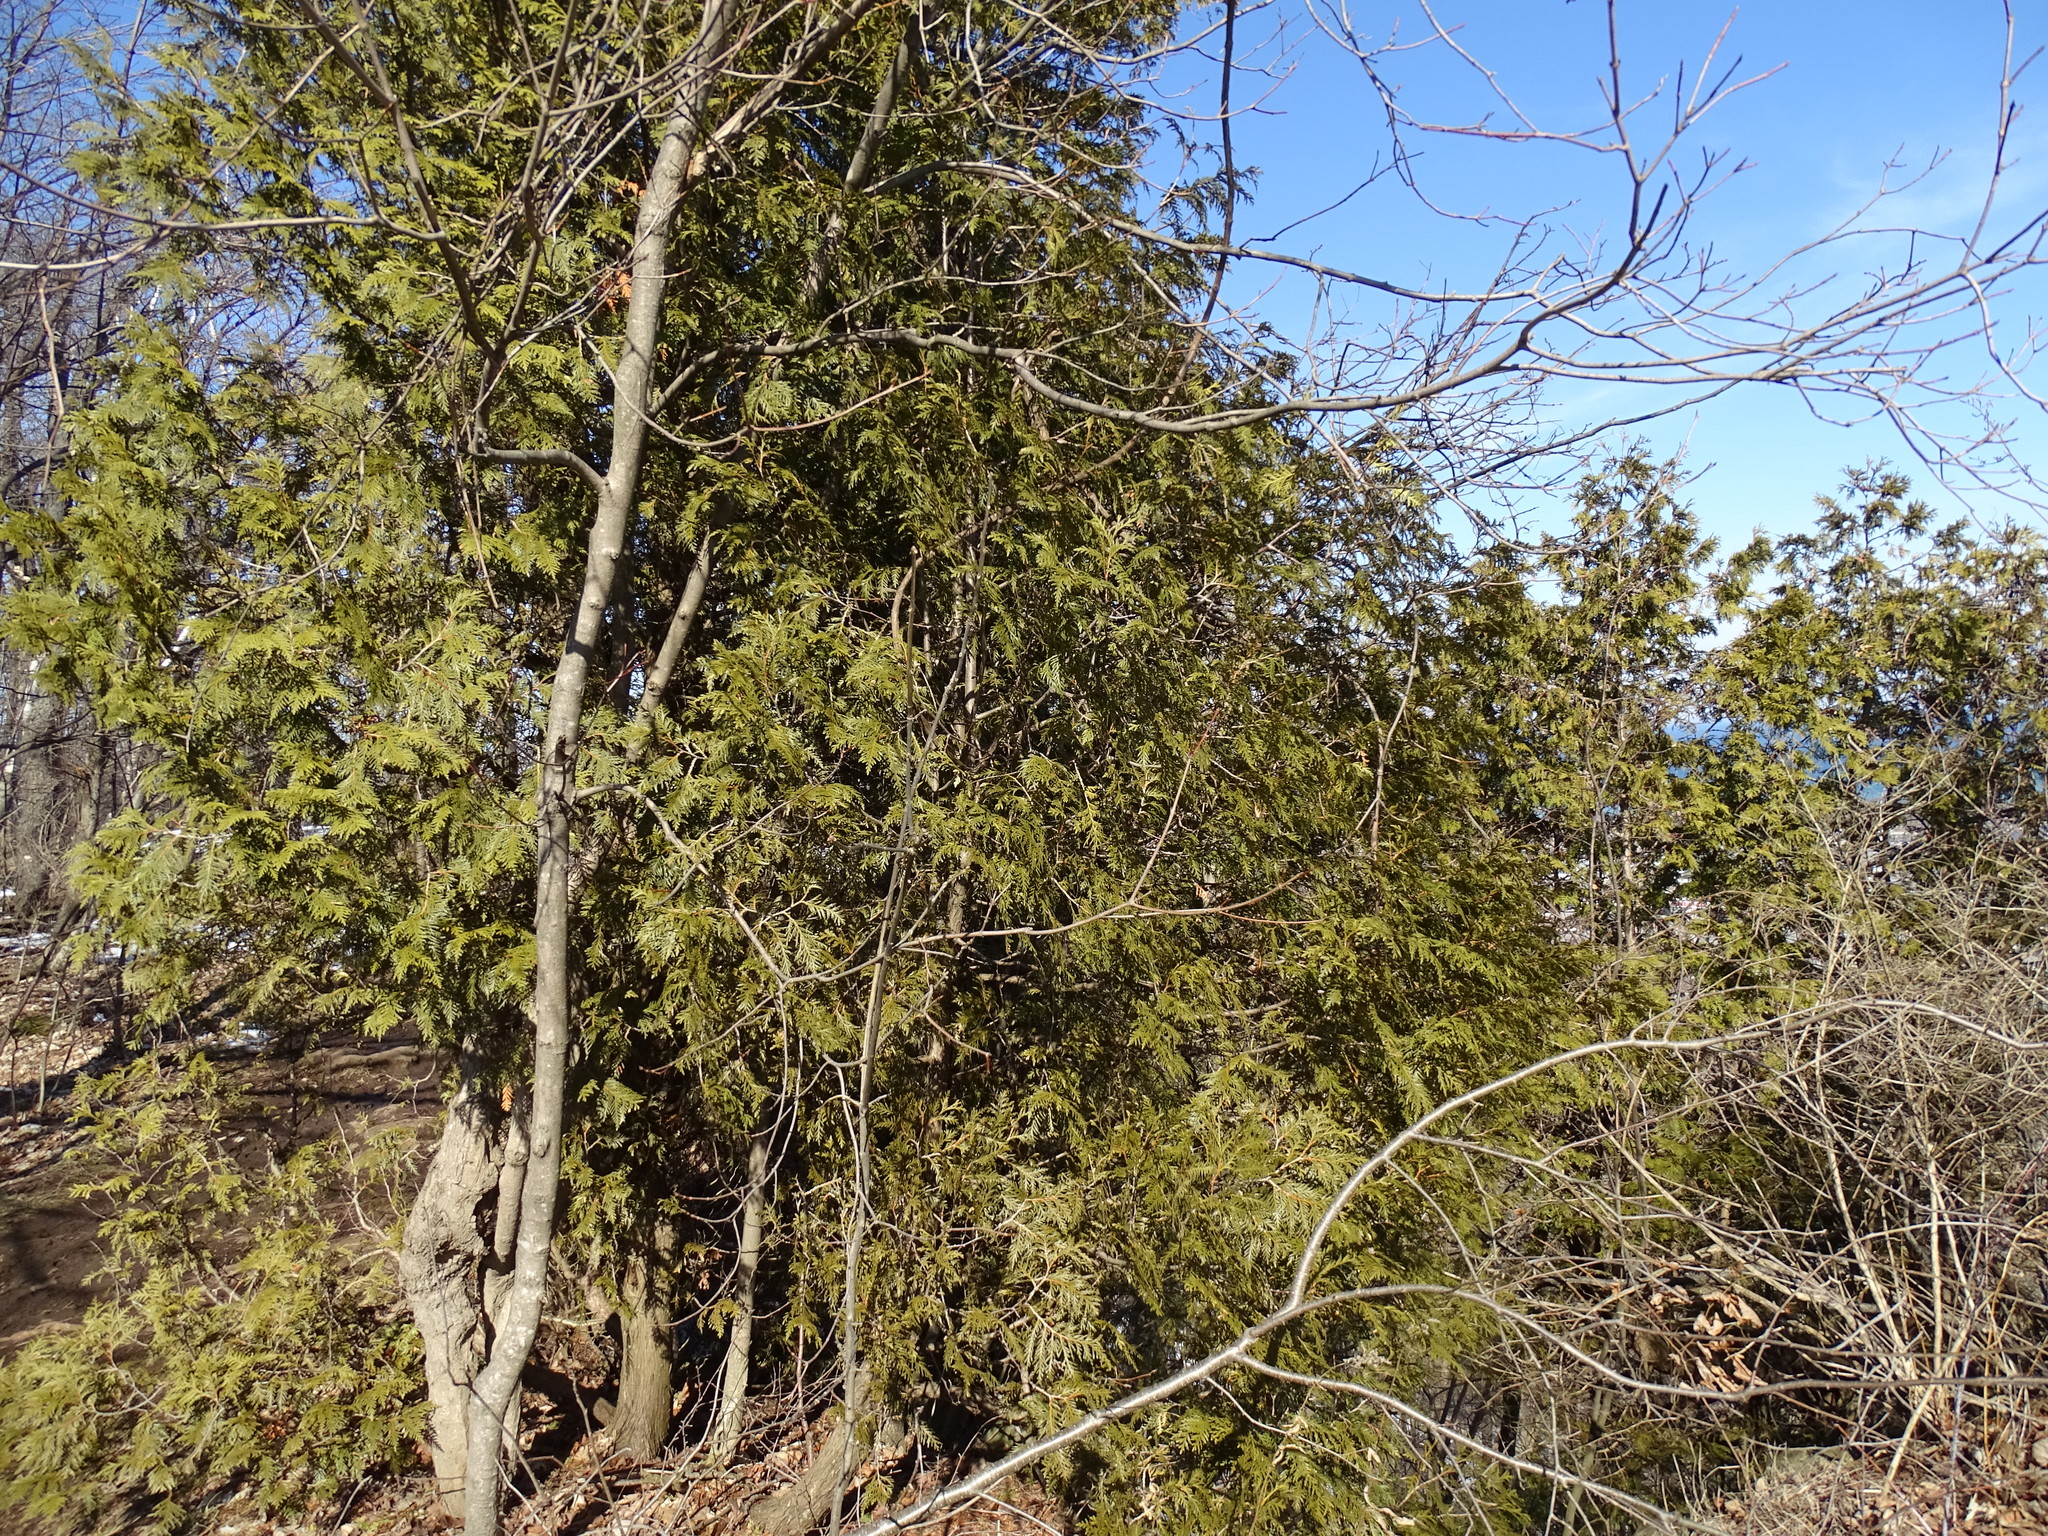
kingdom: Plantae
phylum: Tracheophyta
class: Pinopsida
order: Pinales
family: Cupressaceae
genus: Thuja
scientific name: Thuja occidentalis
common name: Northern white-cedar
